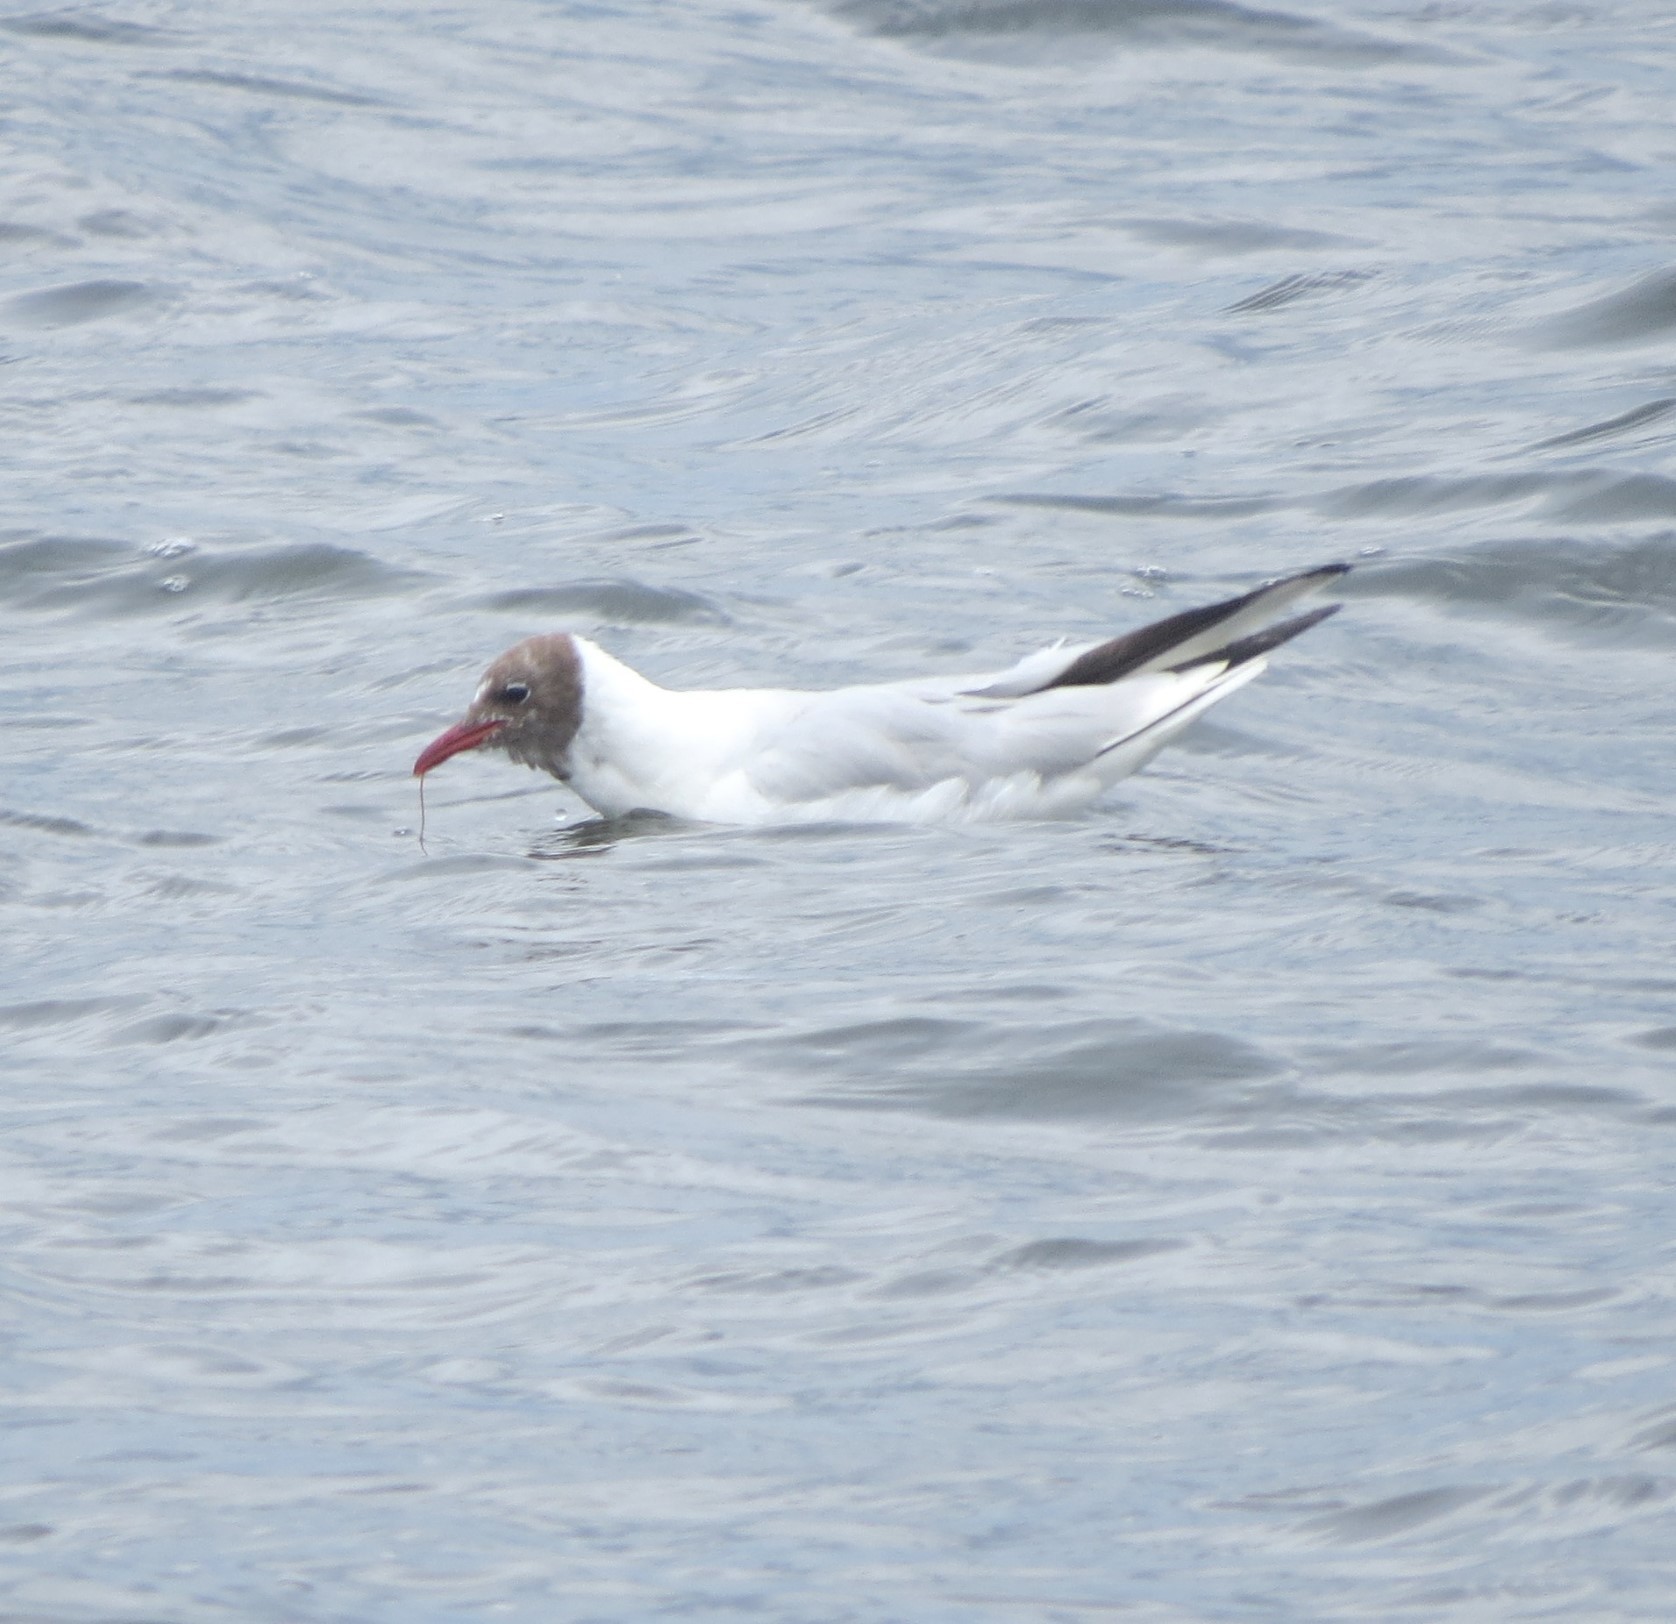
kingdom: Animalia
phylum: Chordata
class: Aves
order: Charadriiformes
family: Laridae
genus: Chroicocephalus
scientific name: Chroicocephalus ridibundus
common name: Black-headed gull
